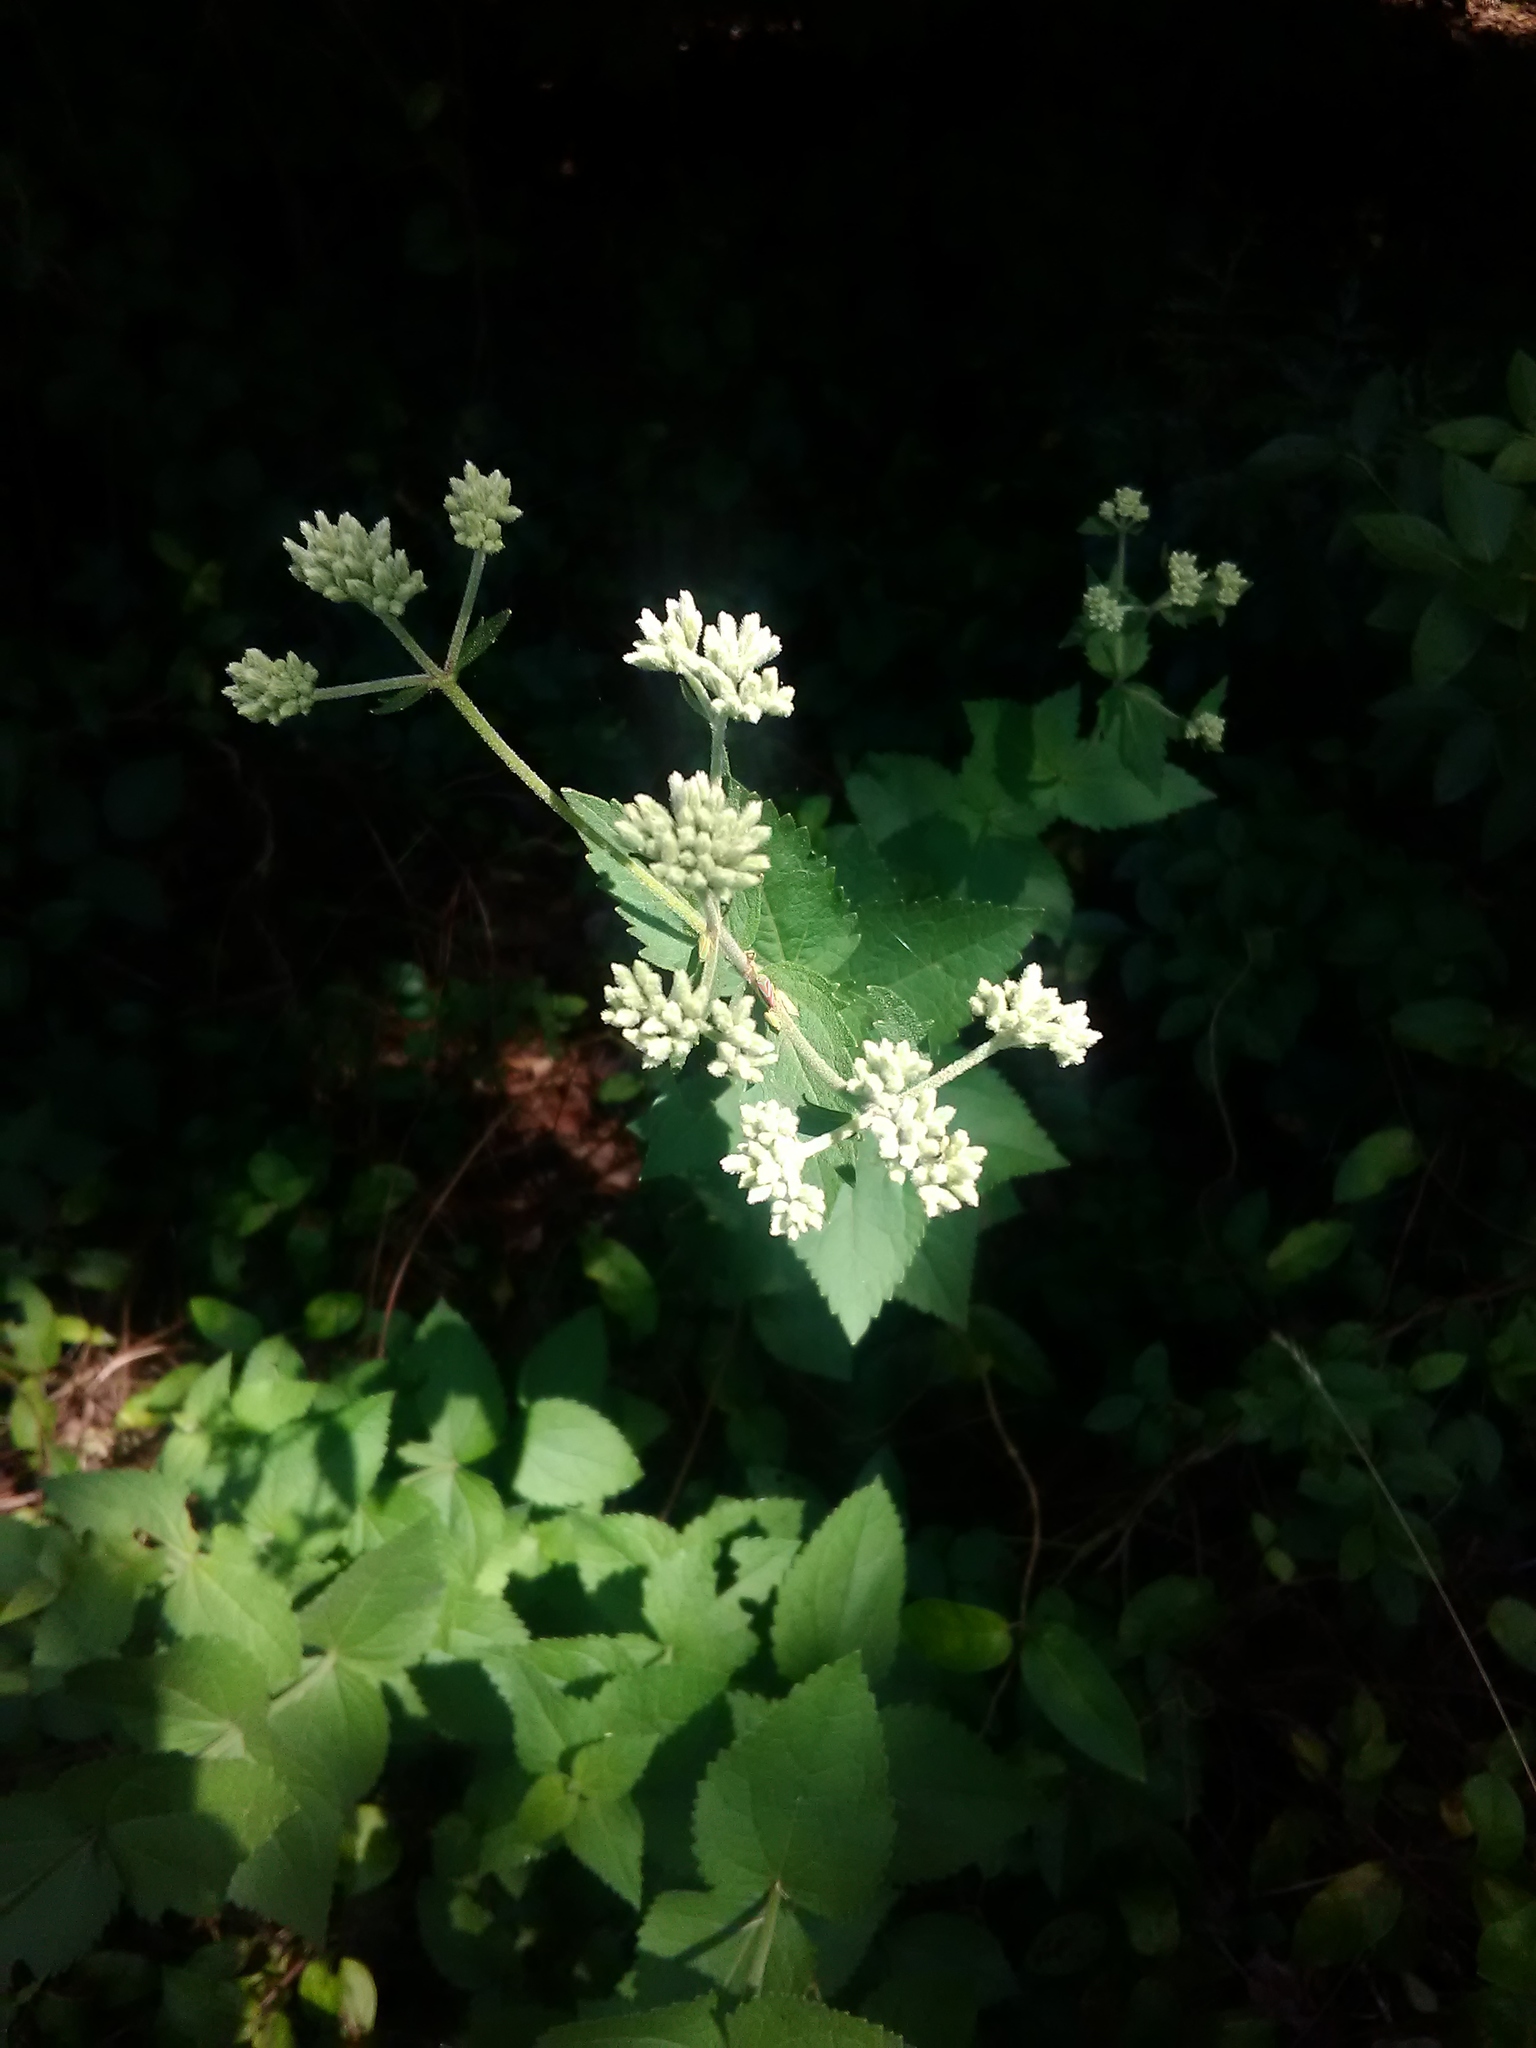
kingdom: Plantae
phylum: Tracheophyta
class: Magnoliopsida
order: Asterales
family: Asteraceae
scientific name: Asteraceae
